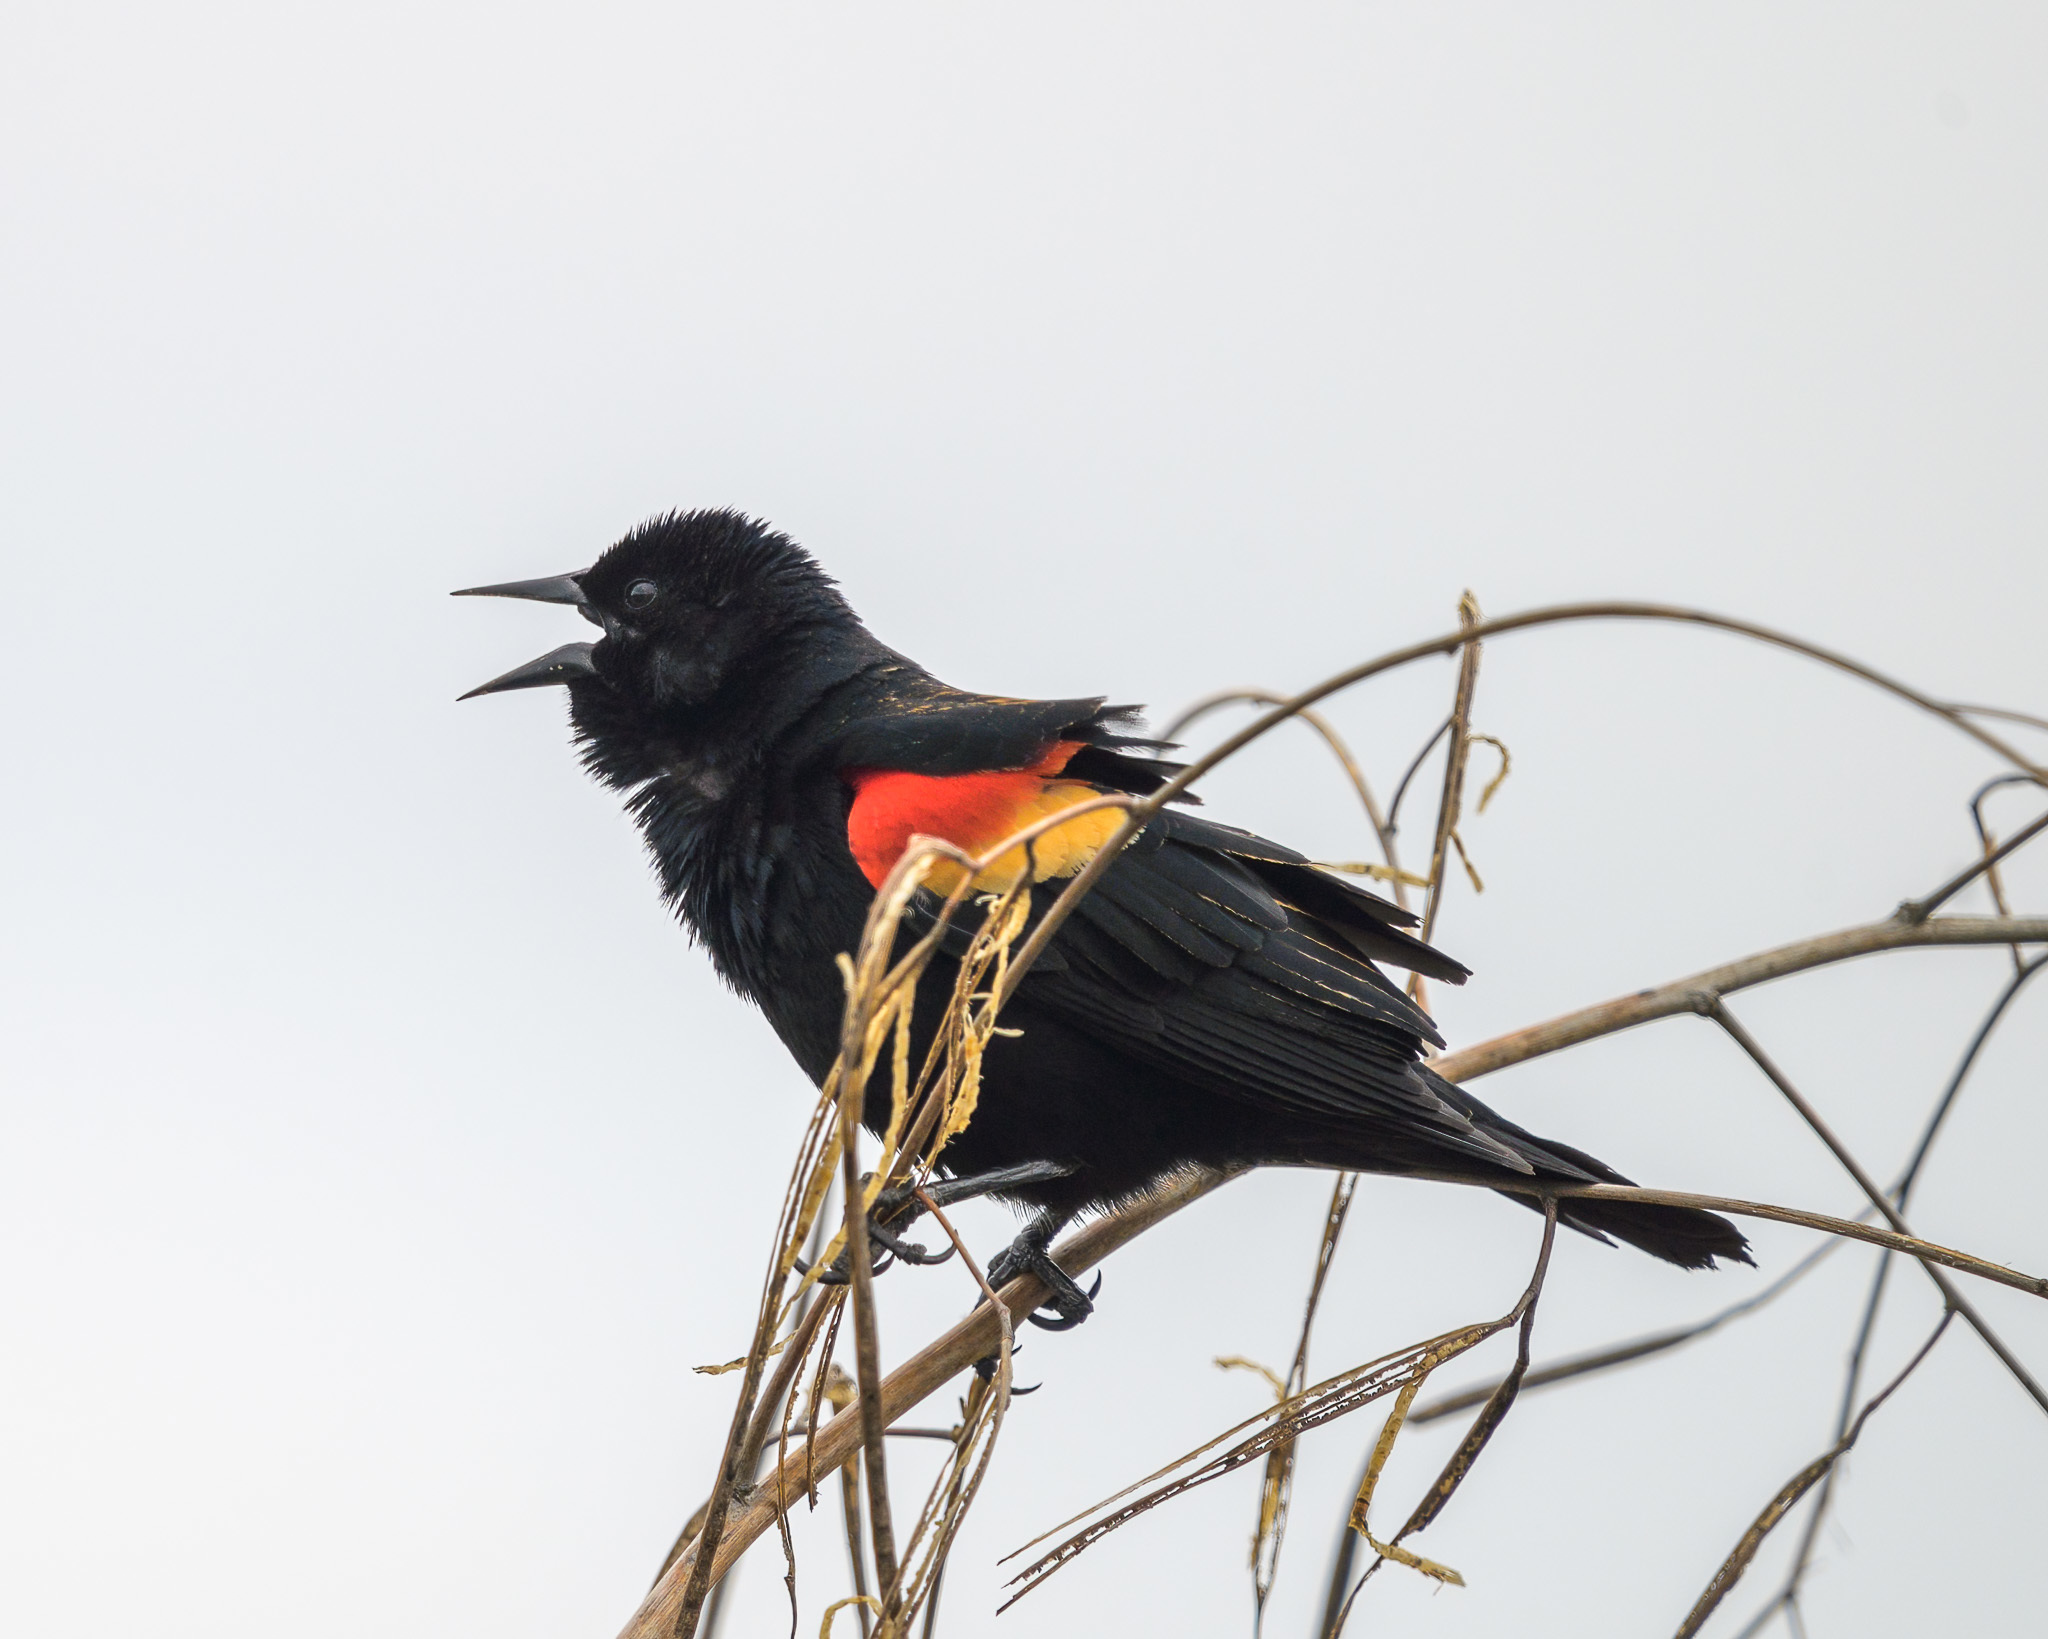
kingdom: Animalia
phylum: Chordata
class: Aves
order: Passeriformes
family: Icteridae
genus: Agelaius
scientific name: Agelaius phoeniceus
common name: Red-winged blackbird
